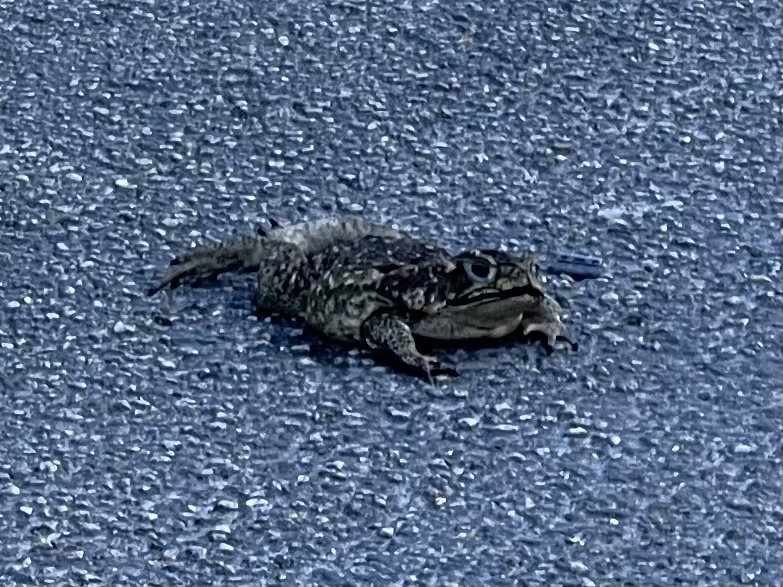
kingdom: Animalia
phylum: Chordata
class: Amphibia
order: Anura
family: Bufonidae
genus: Rhinella
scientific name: Rhinella horribilis
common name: Mesoamerican cane toad
